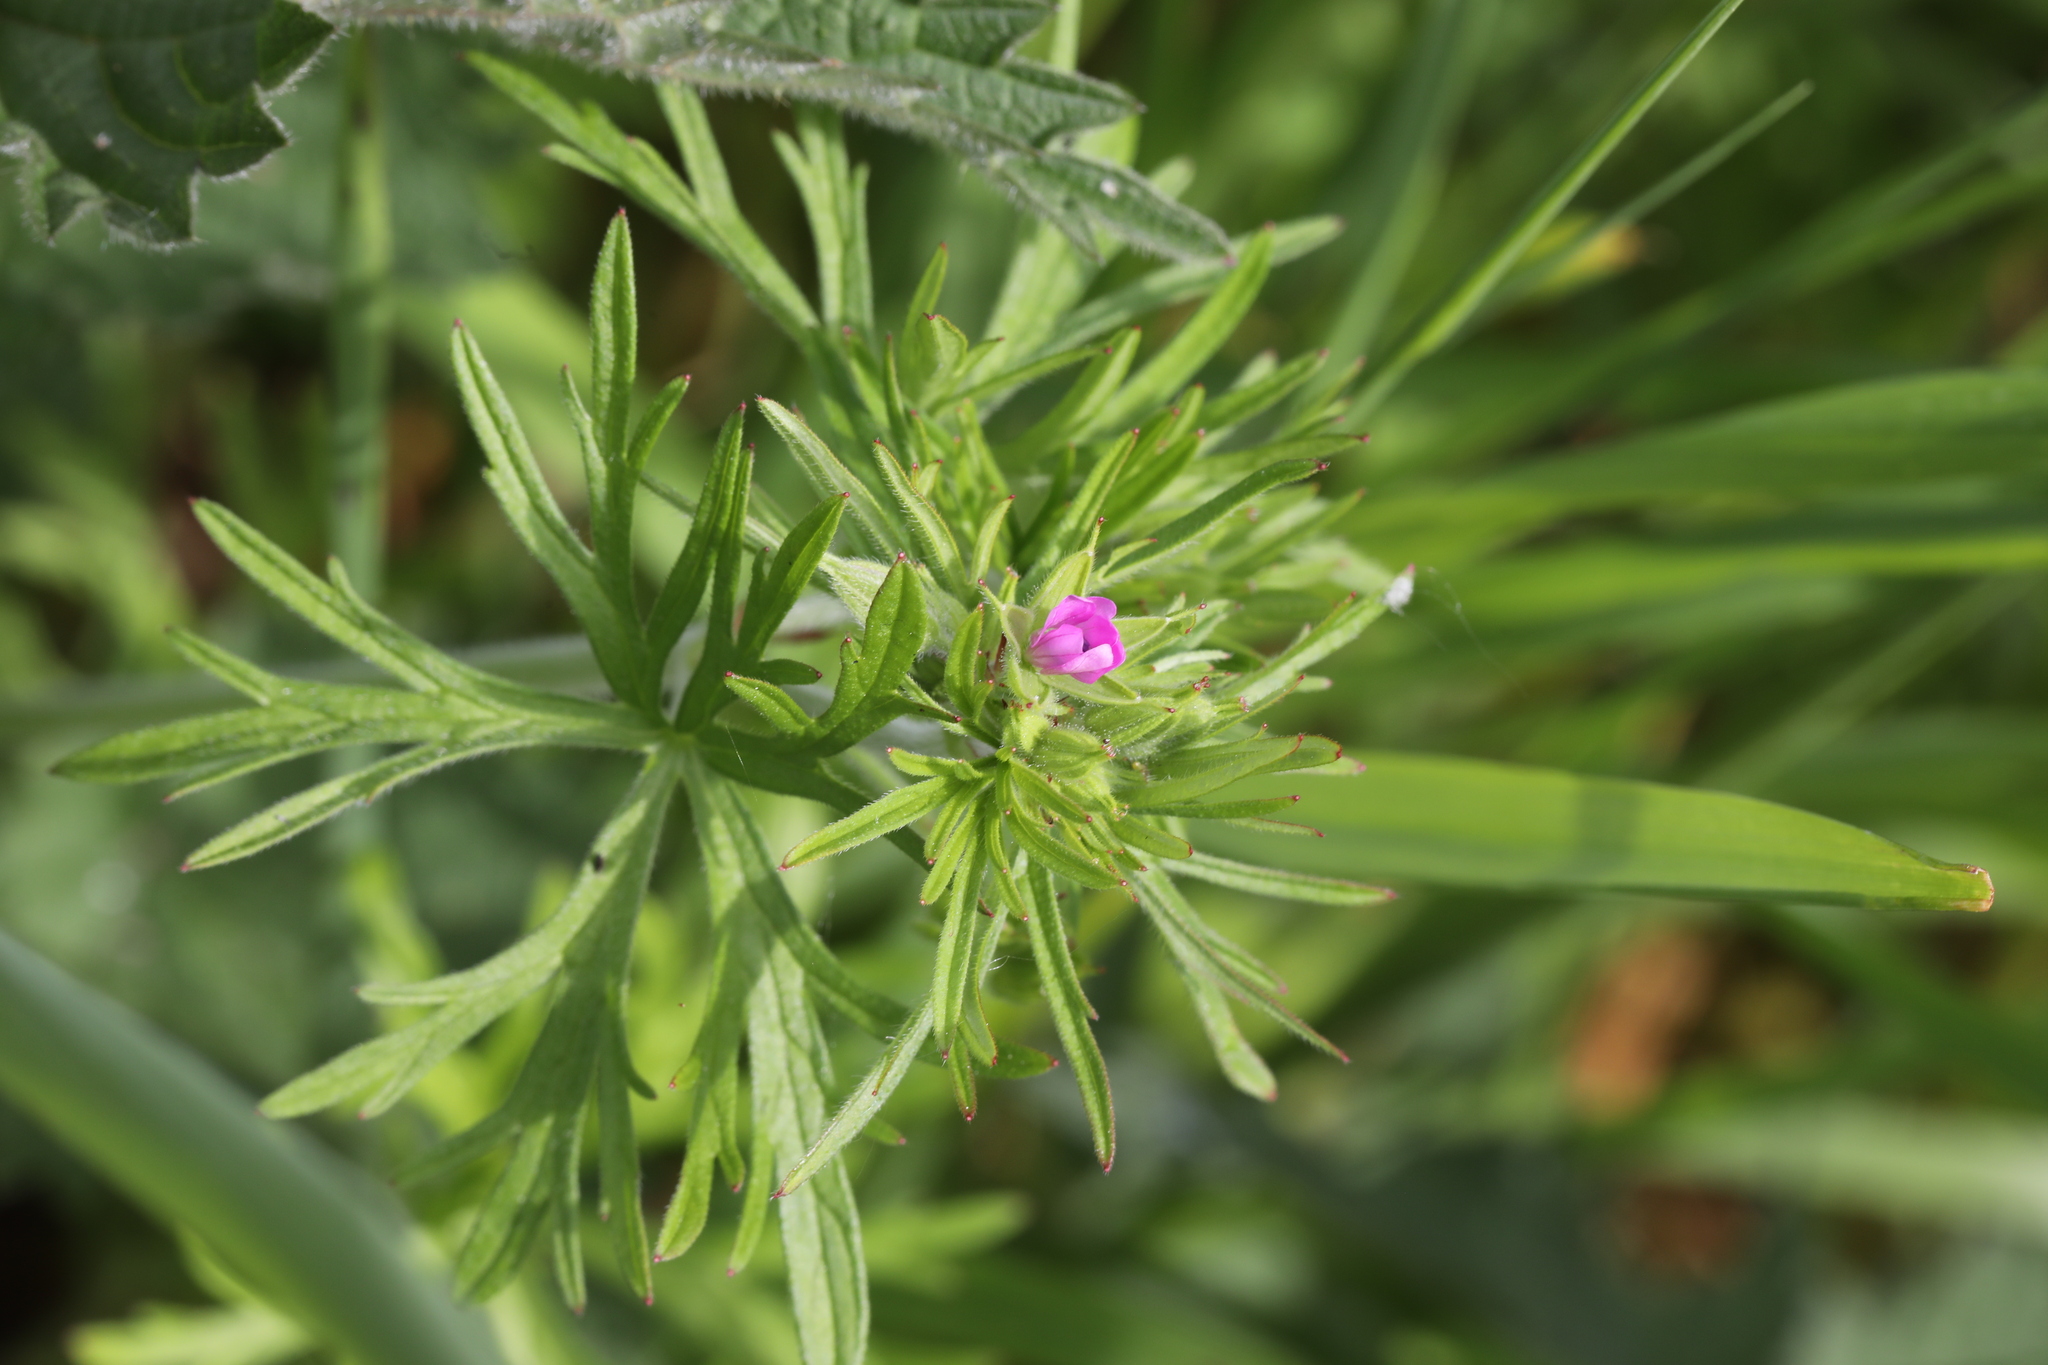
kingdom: Plantae
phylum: Tracheophyta
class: Magnoliopsida
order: Geraniales
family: Geraniaceae
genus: Geranium
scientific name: Geranium dissectum
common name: Cut-leaved crane's-bill
